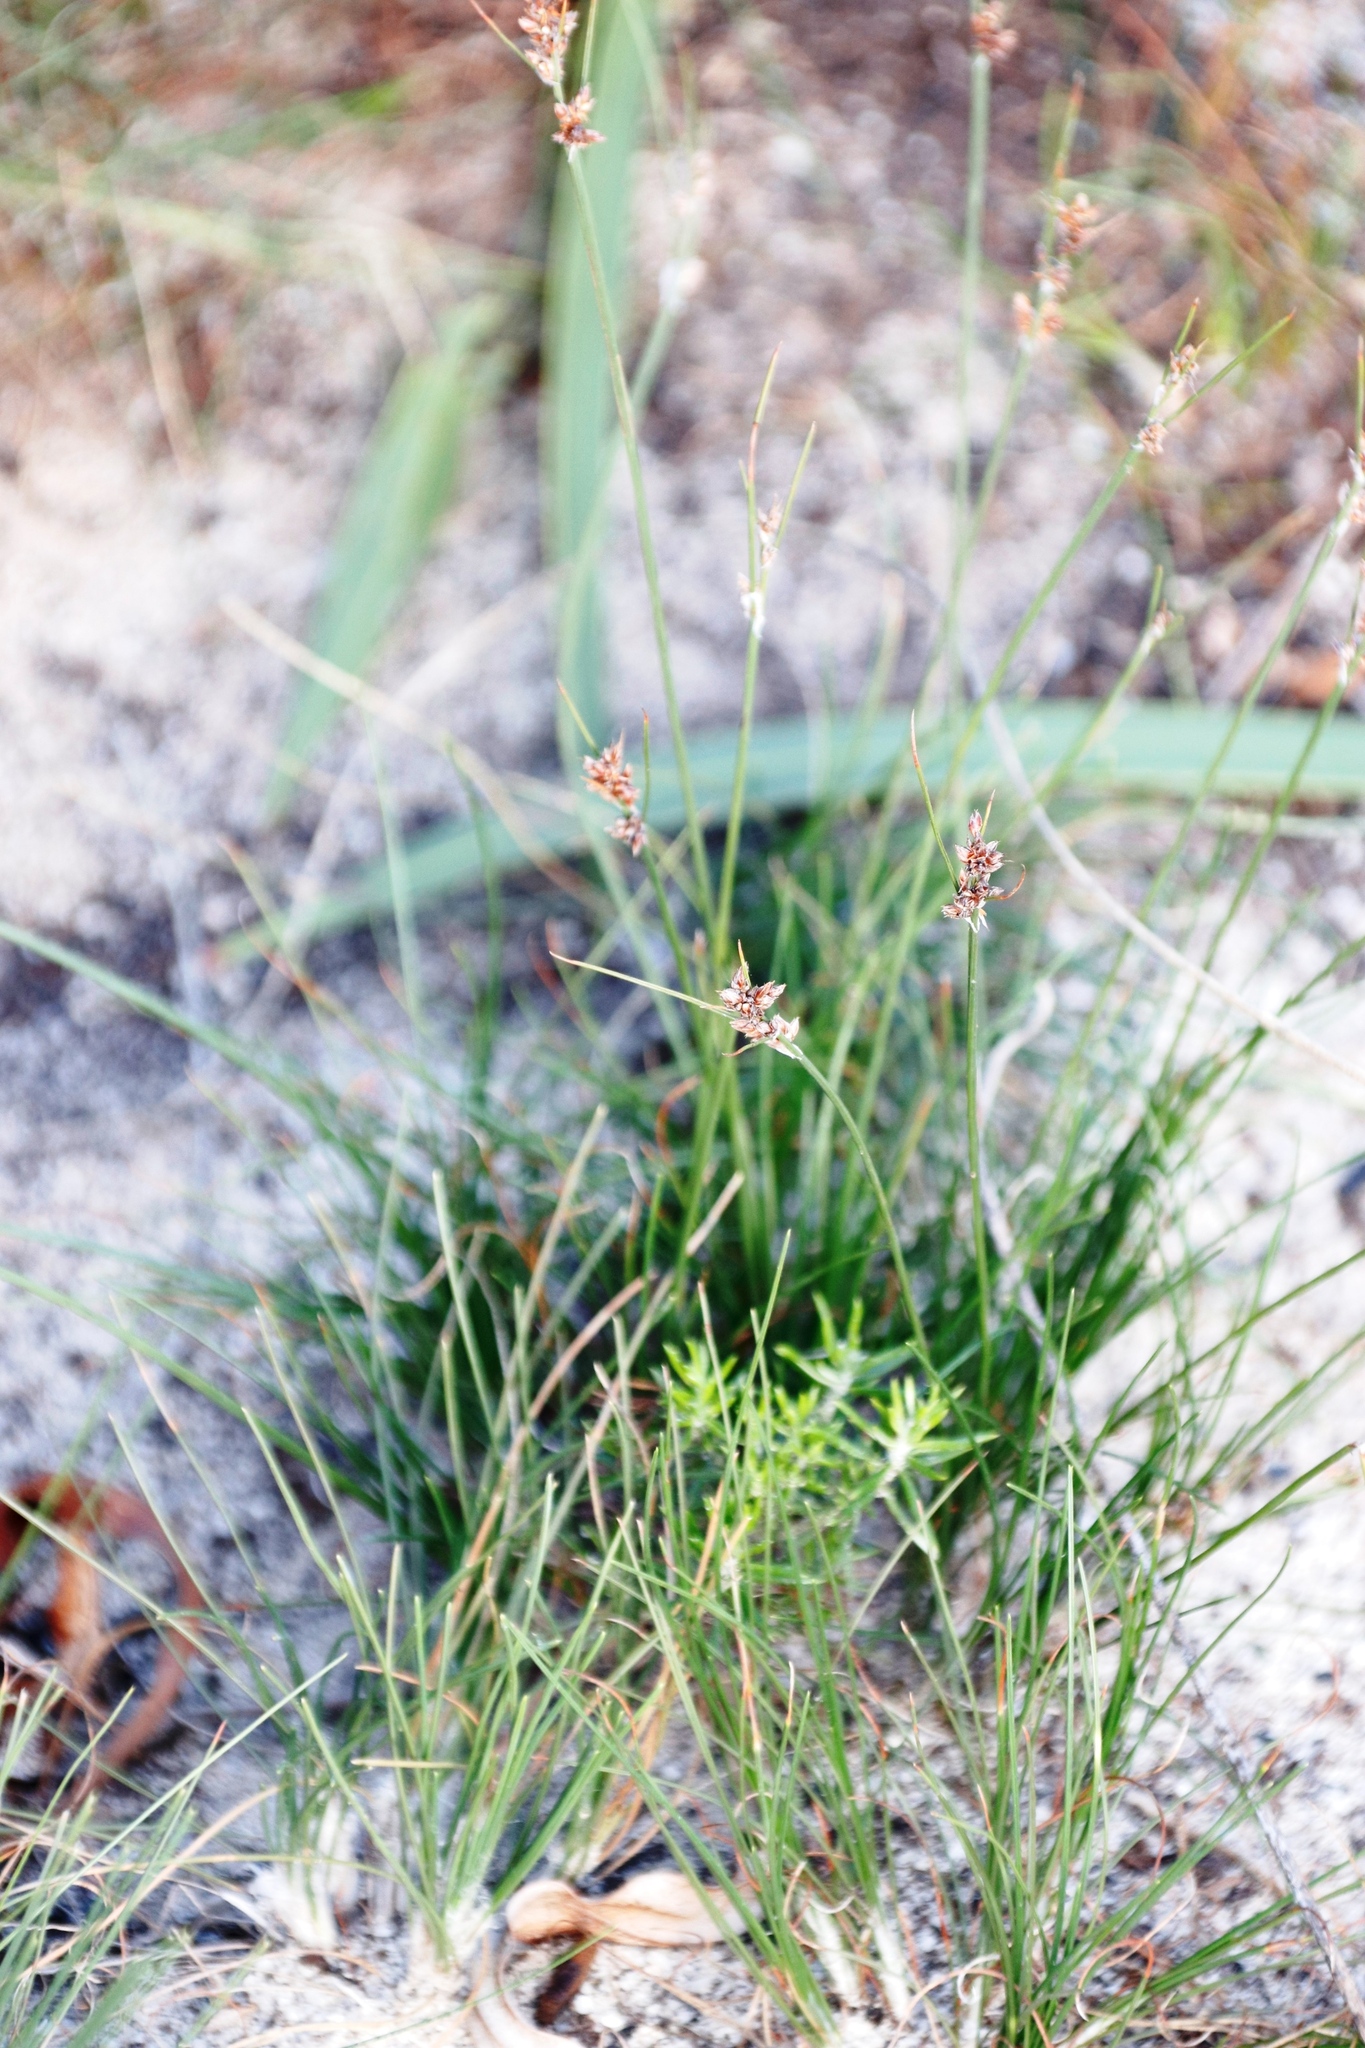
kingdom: Plantae
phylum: Tracheophyta
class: Liliopsida
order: Poales
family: Cyperaceae
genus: Ficinia
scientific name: Ficinia bulbosa
